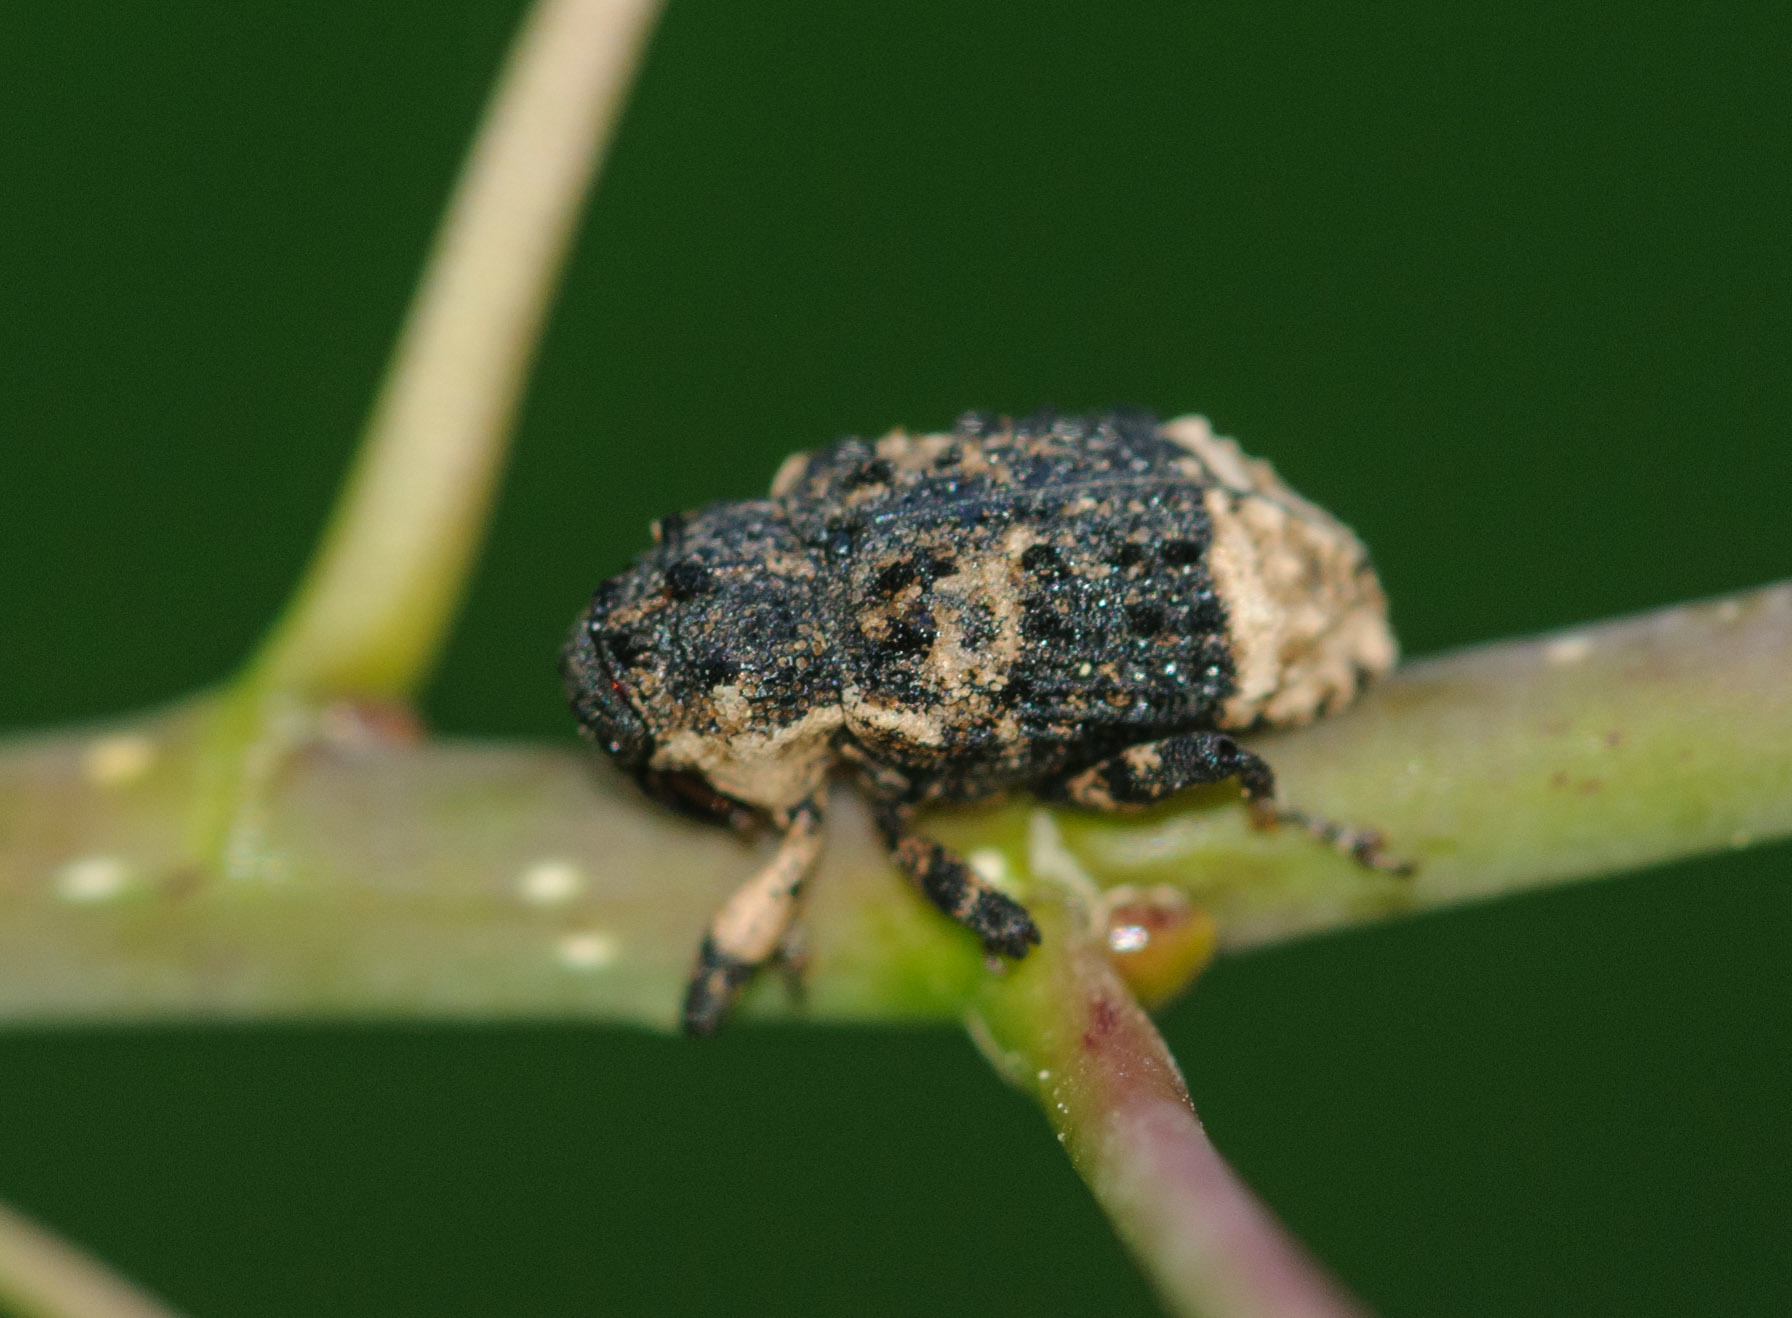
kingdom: Animalia
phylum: Arthropoda
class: Insecta
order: Coleoptera
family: Curculionidae
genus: Cryptorhynchus
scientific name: Cryptorhynchus lapathi
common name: Weevil
